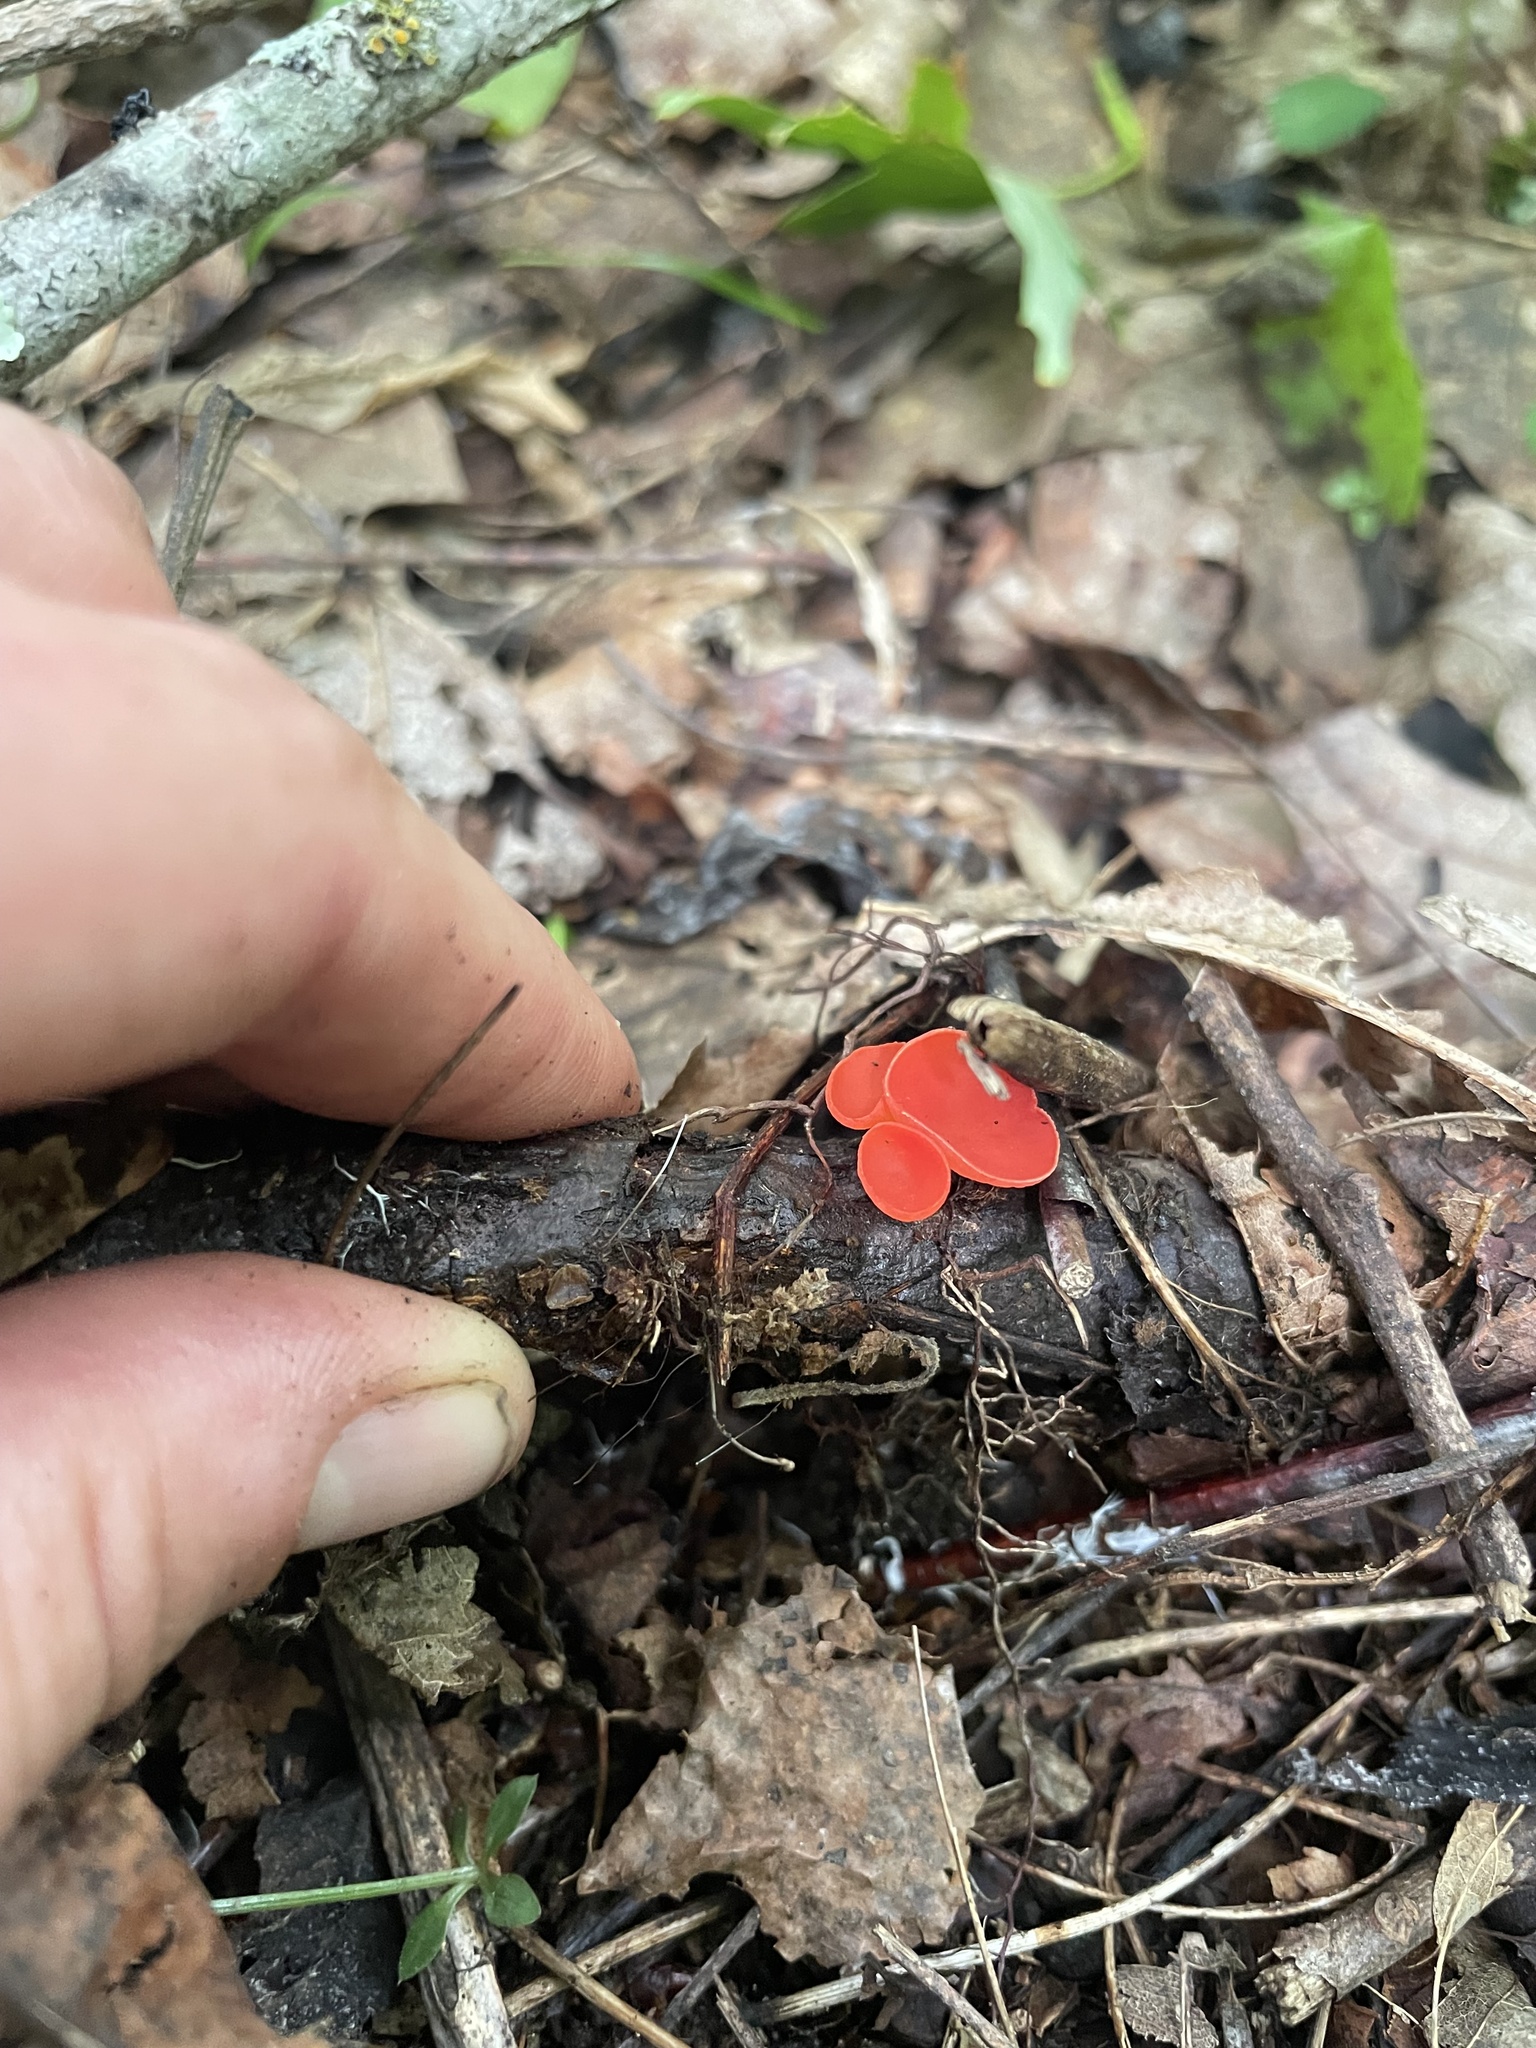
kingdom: Fungi
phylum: Ascomycota
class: Pezizomycetes
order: Pezizales
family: Sarcoscyphaceae
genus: Sarcoscypha
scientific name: Sarcoscypha occidentalis
